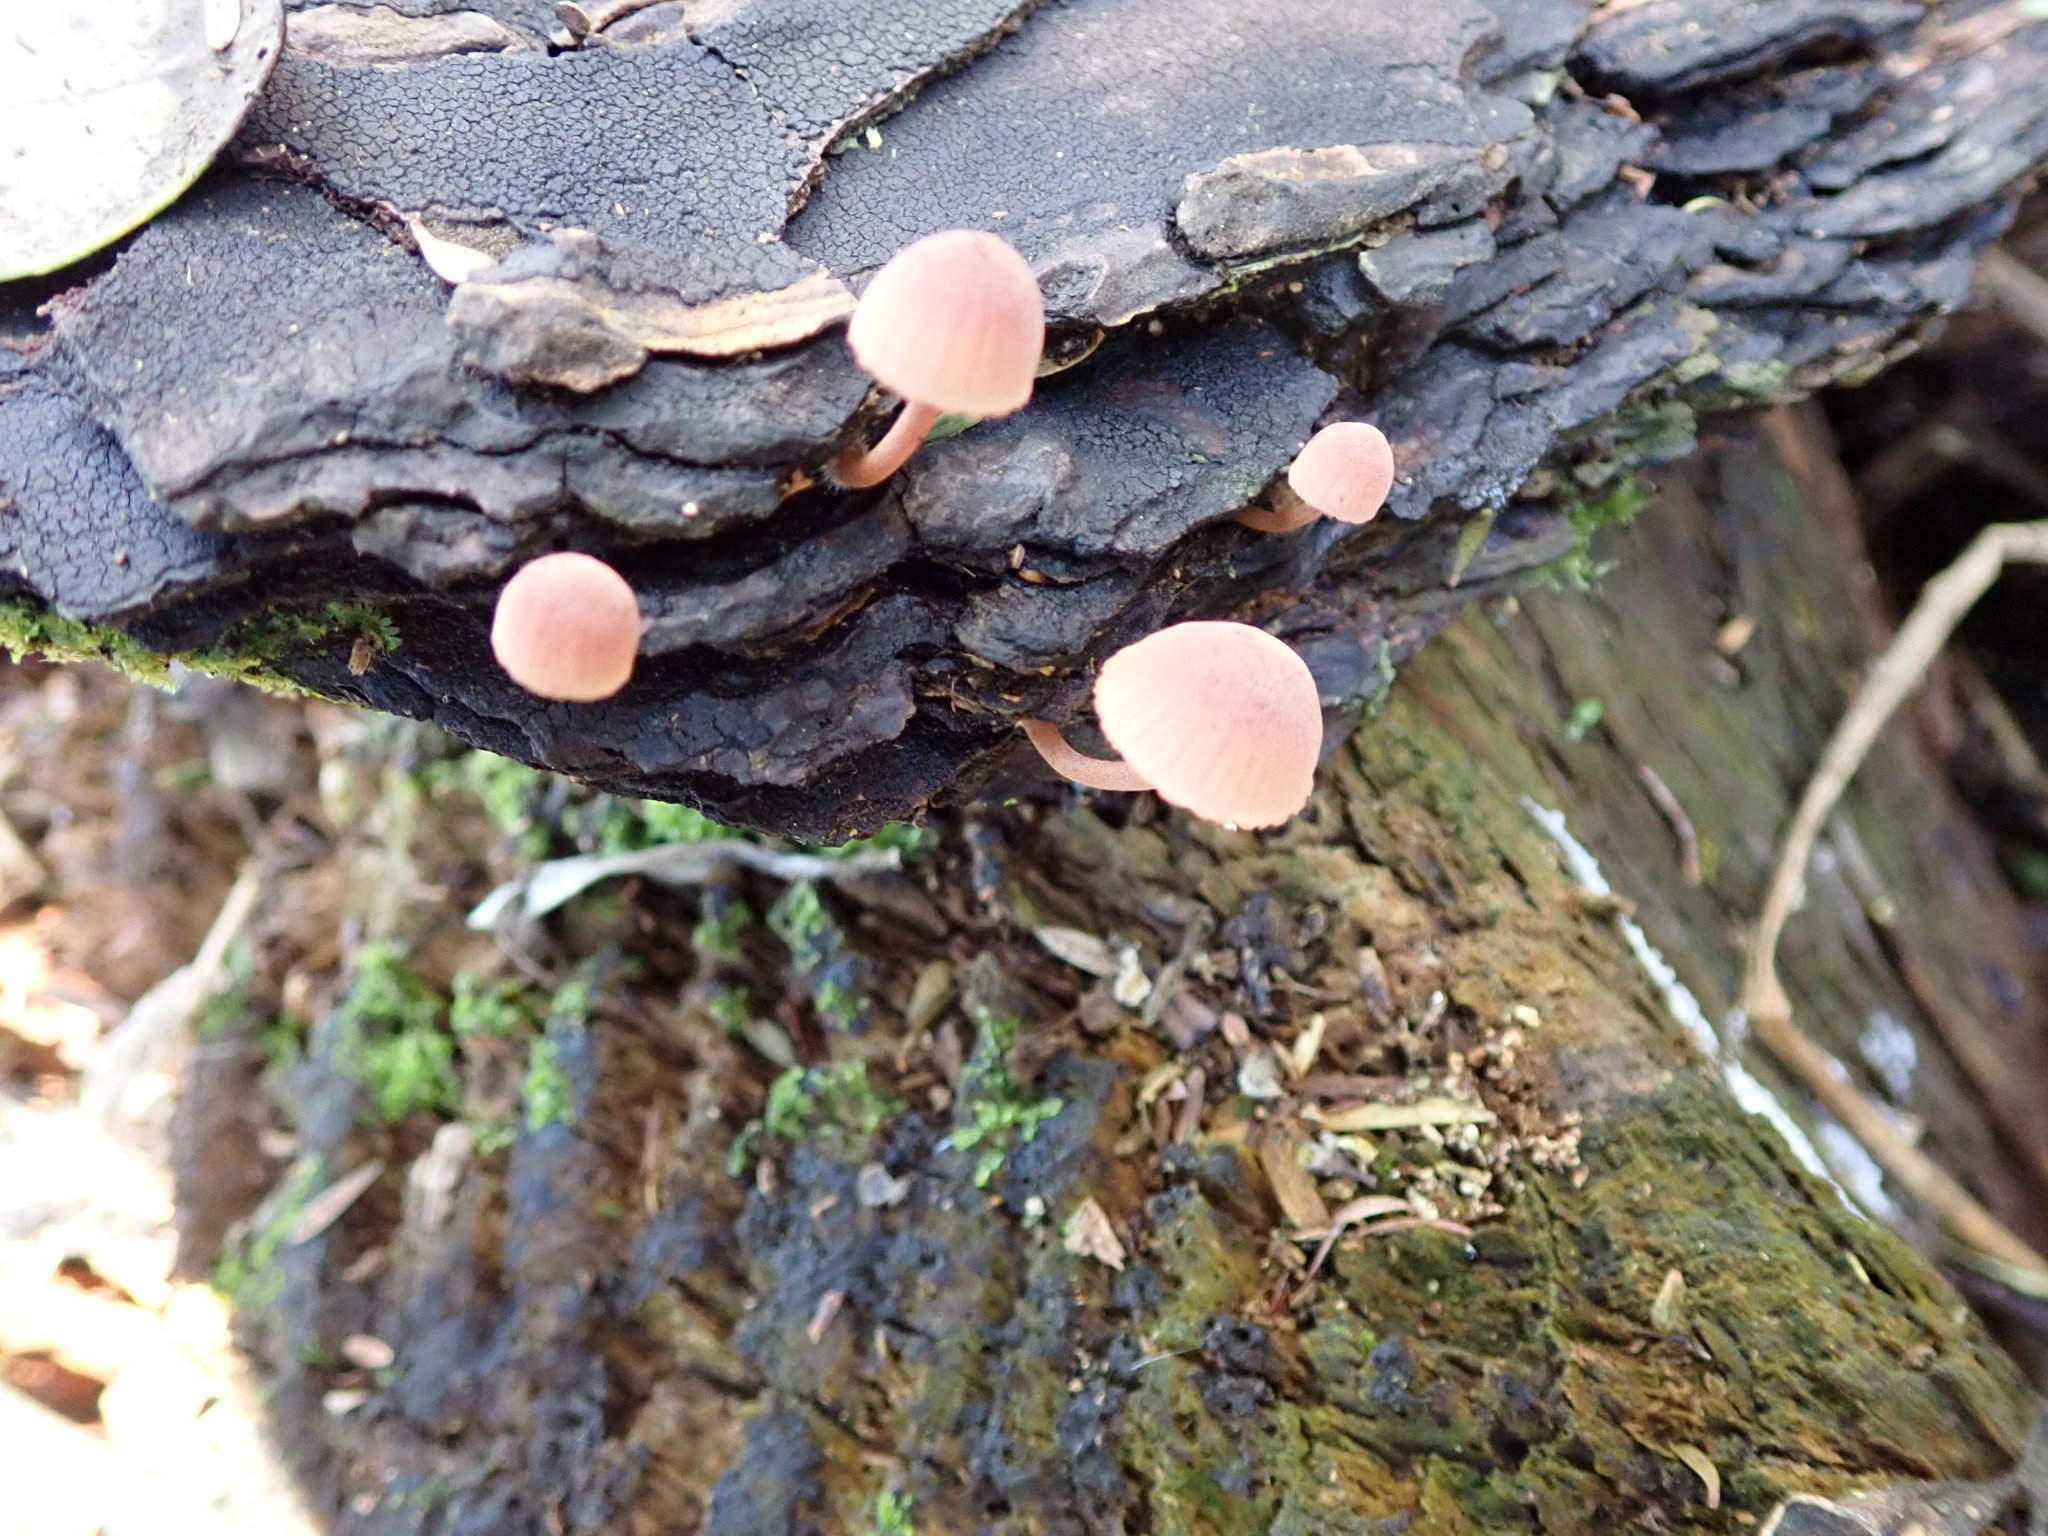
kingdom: Fungi
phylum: Basidiomycota
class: Agaricomycetes
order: Agaricales
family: Mycenaceae
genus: Mycena
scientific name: Mycena parsonsii
